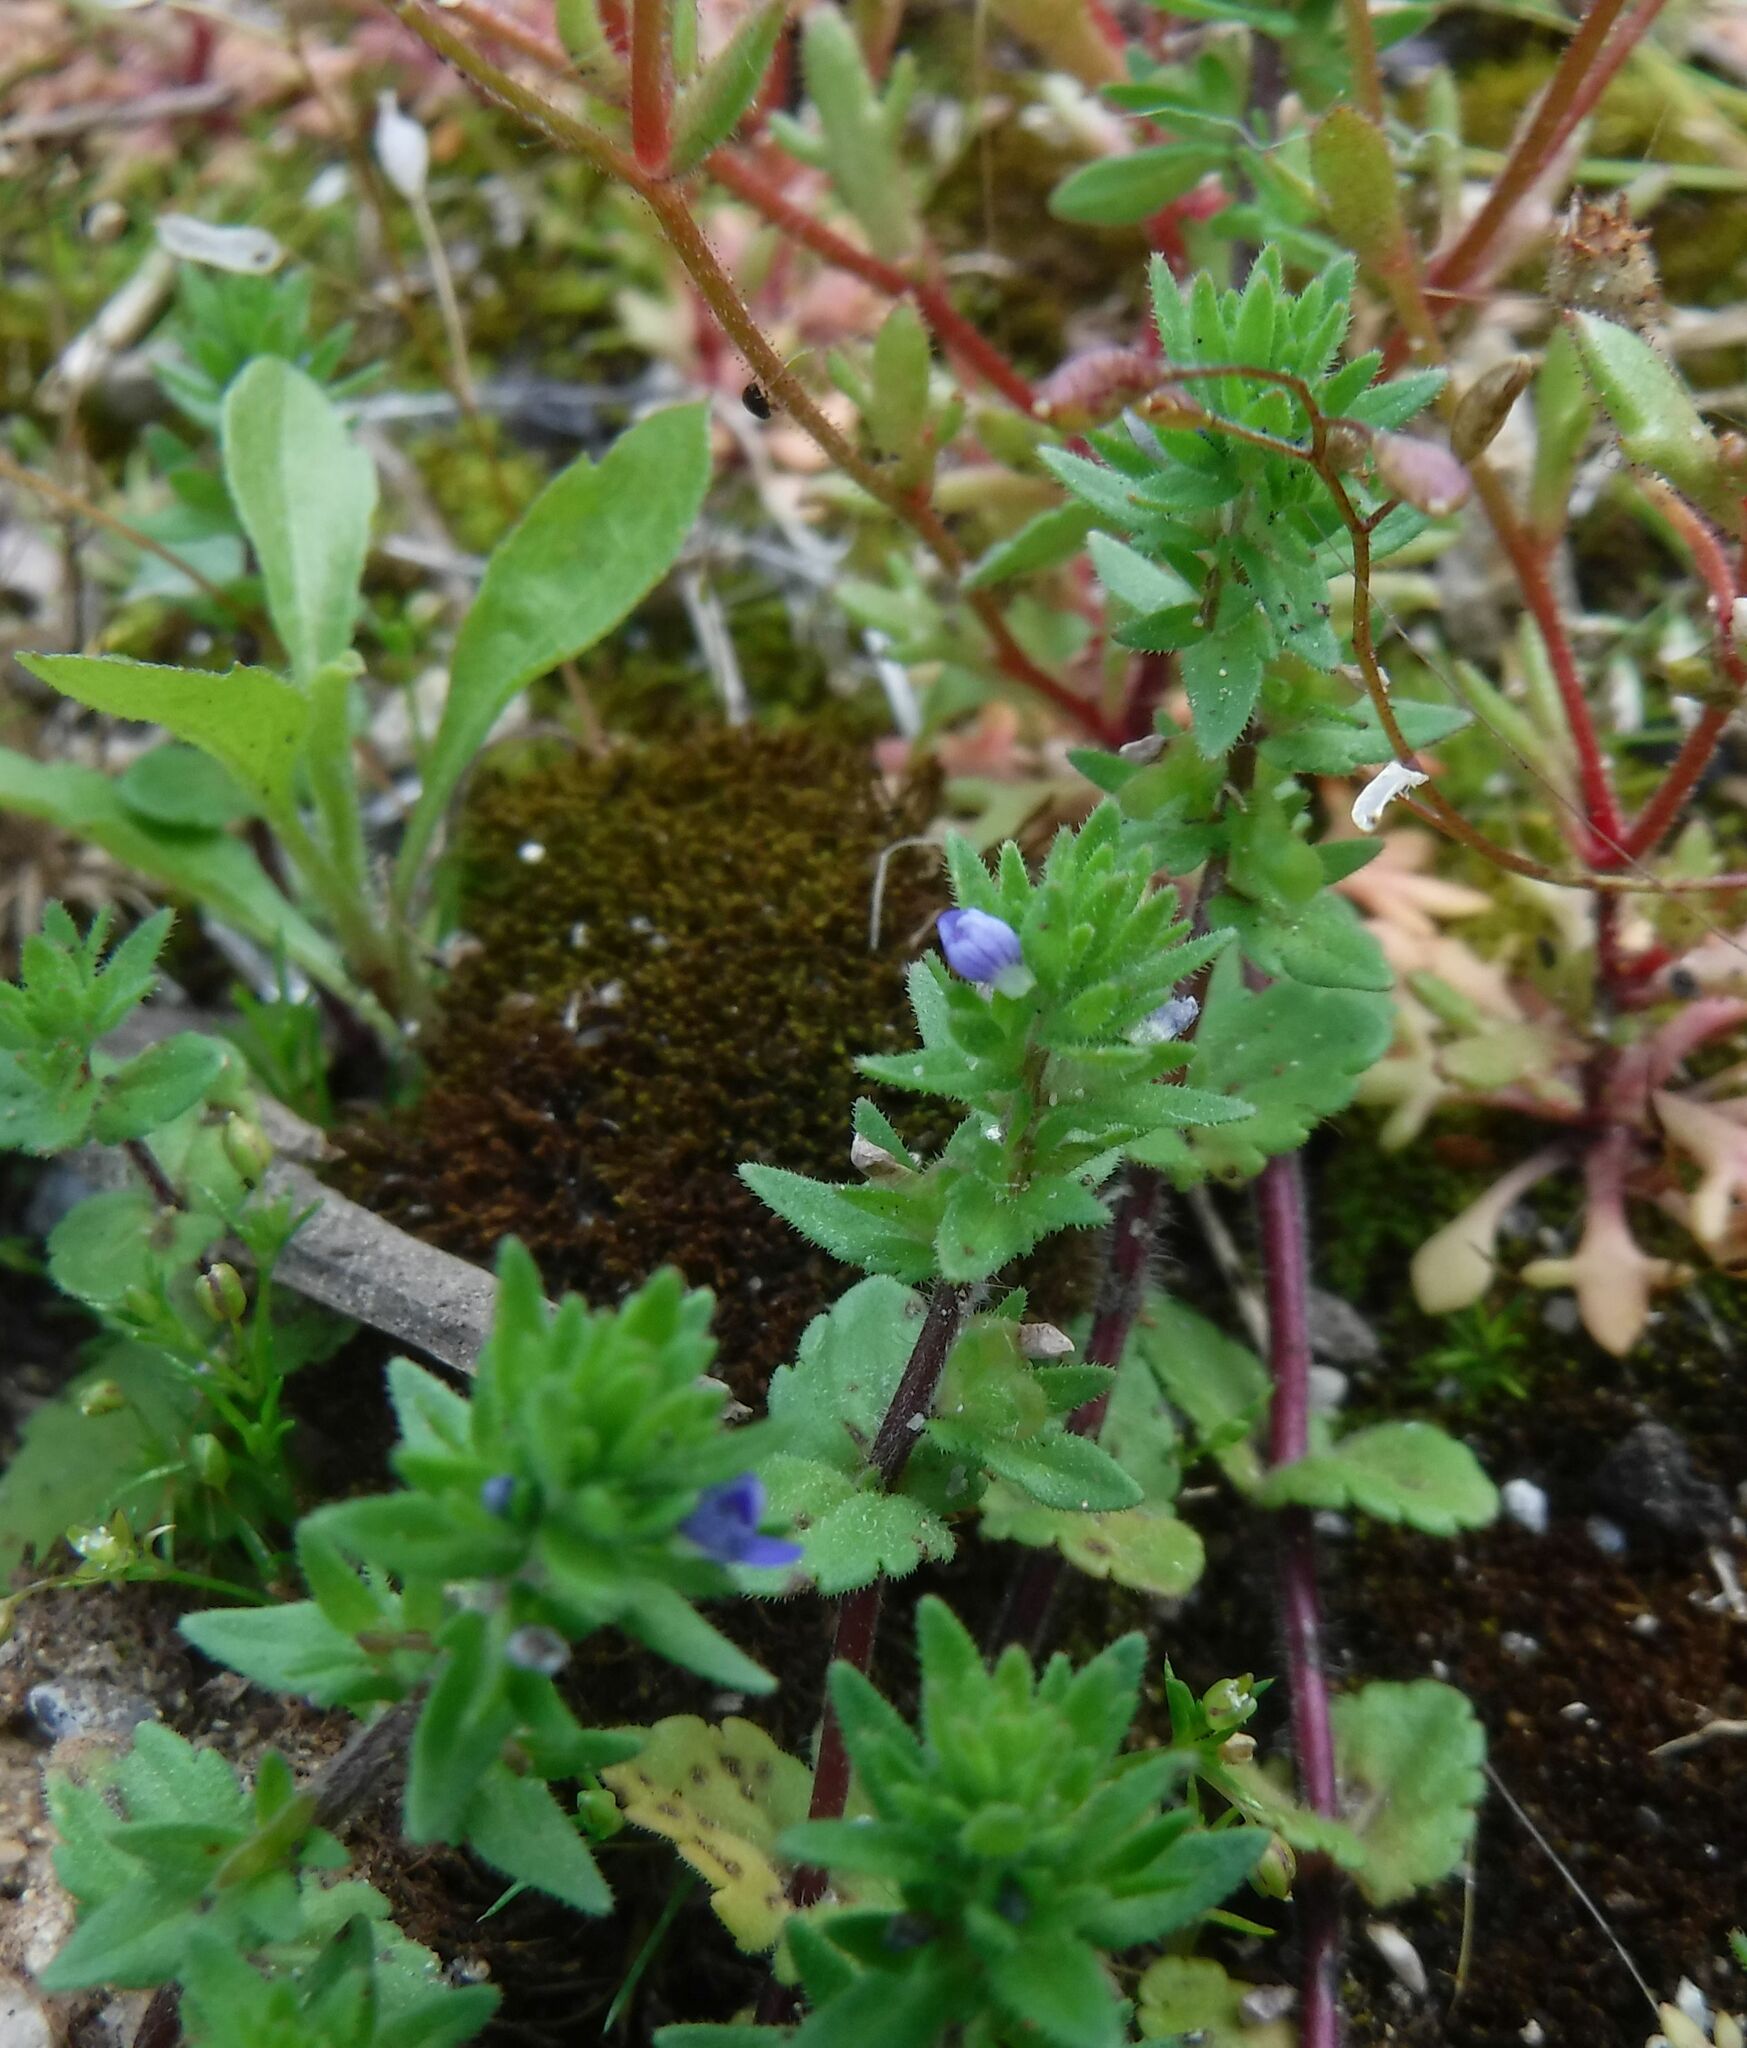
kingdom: Plantae
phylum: Tracheophyta
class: Magnoliopsida
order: Lamiales
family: Plantaginaceae
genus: Veronica
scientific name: Veronica arvensis
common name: Corn speedwell
